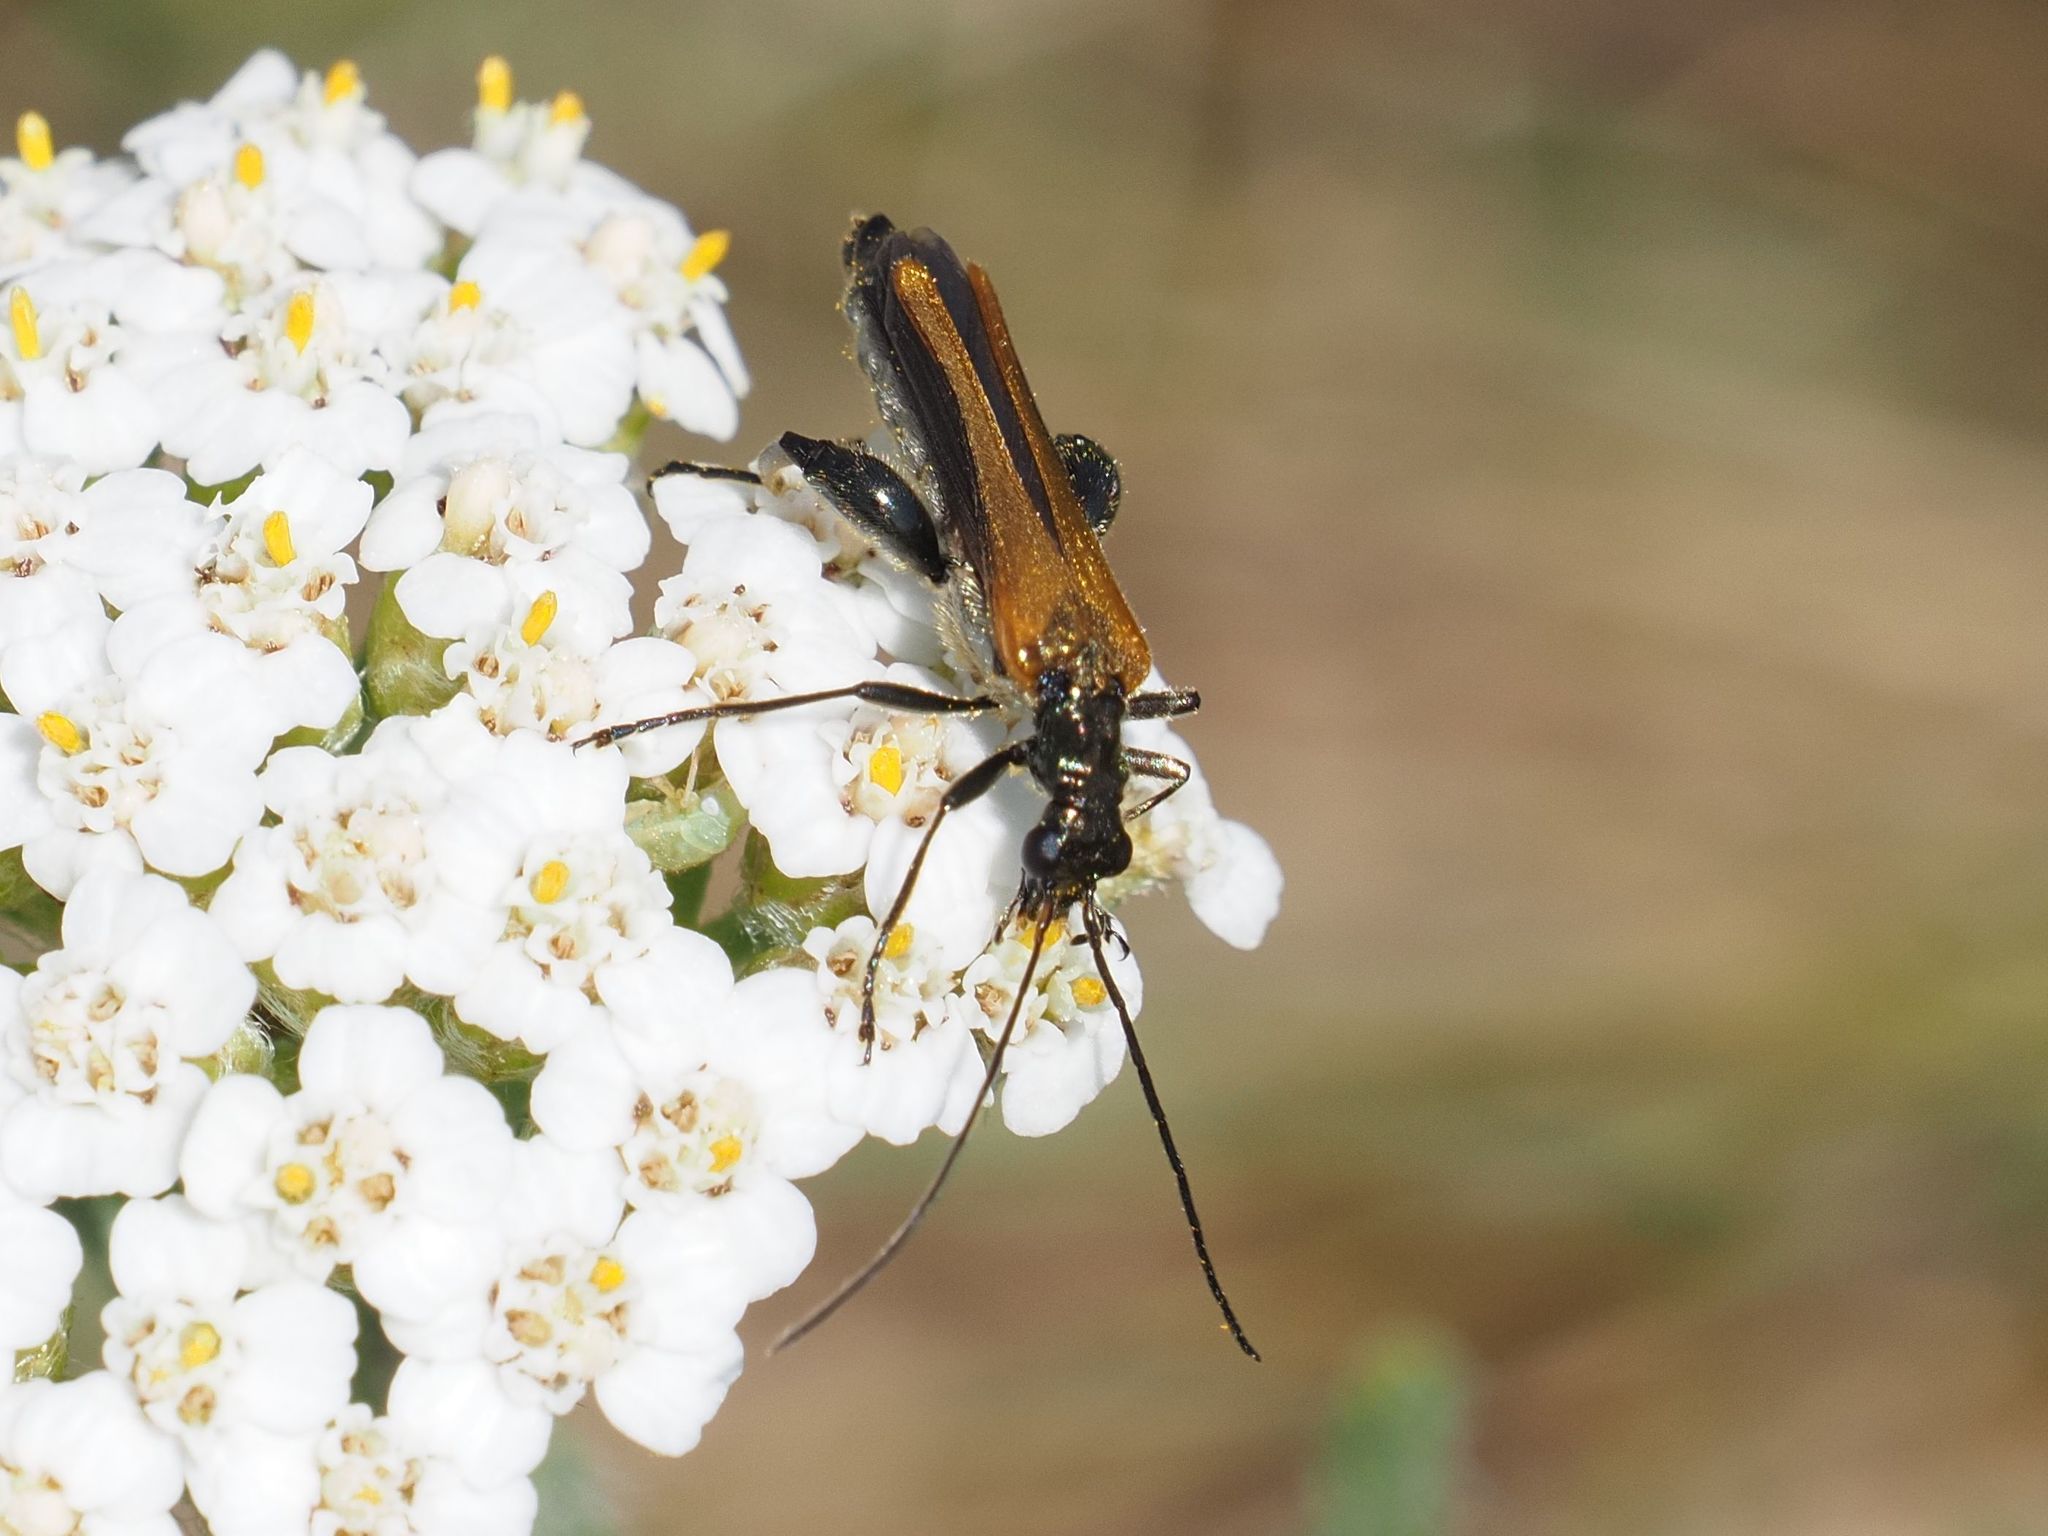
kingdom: Animalia
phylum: Arthropoda
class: Insecta
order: Coleoptera
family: Oedemeridae
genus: Oedemera
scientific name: Oedemera femorata
